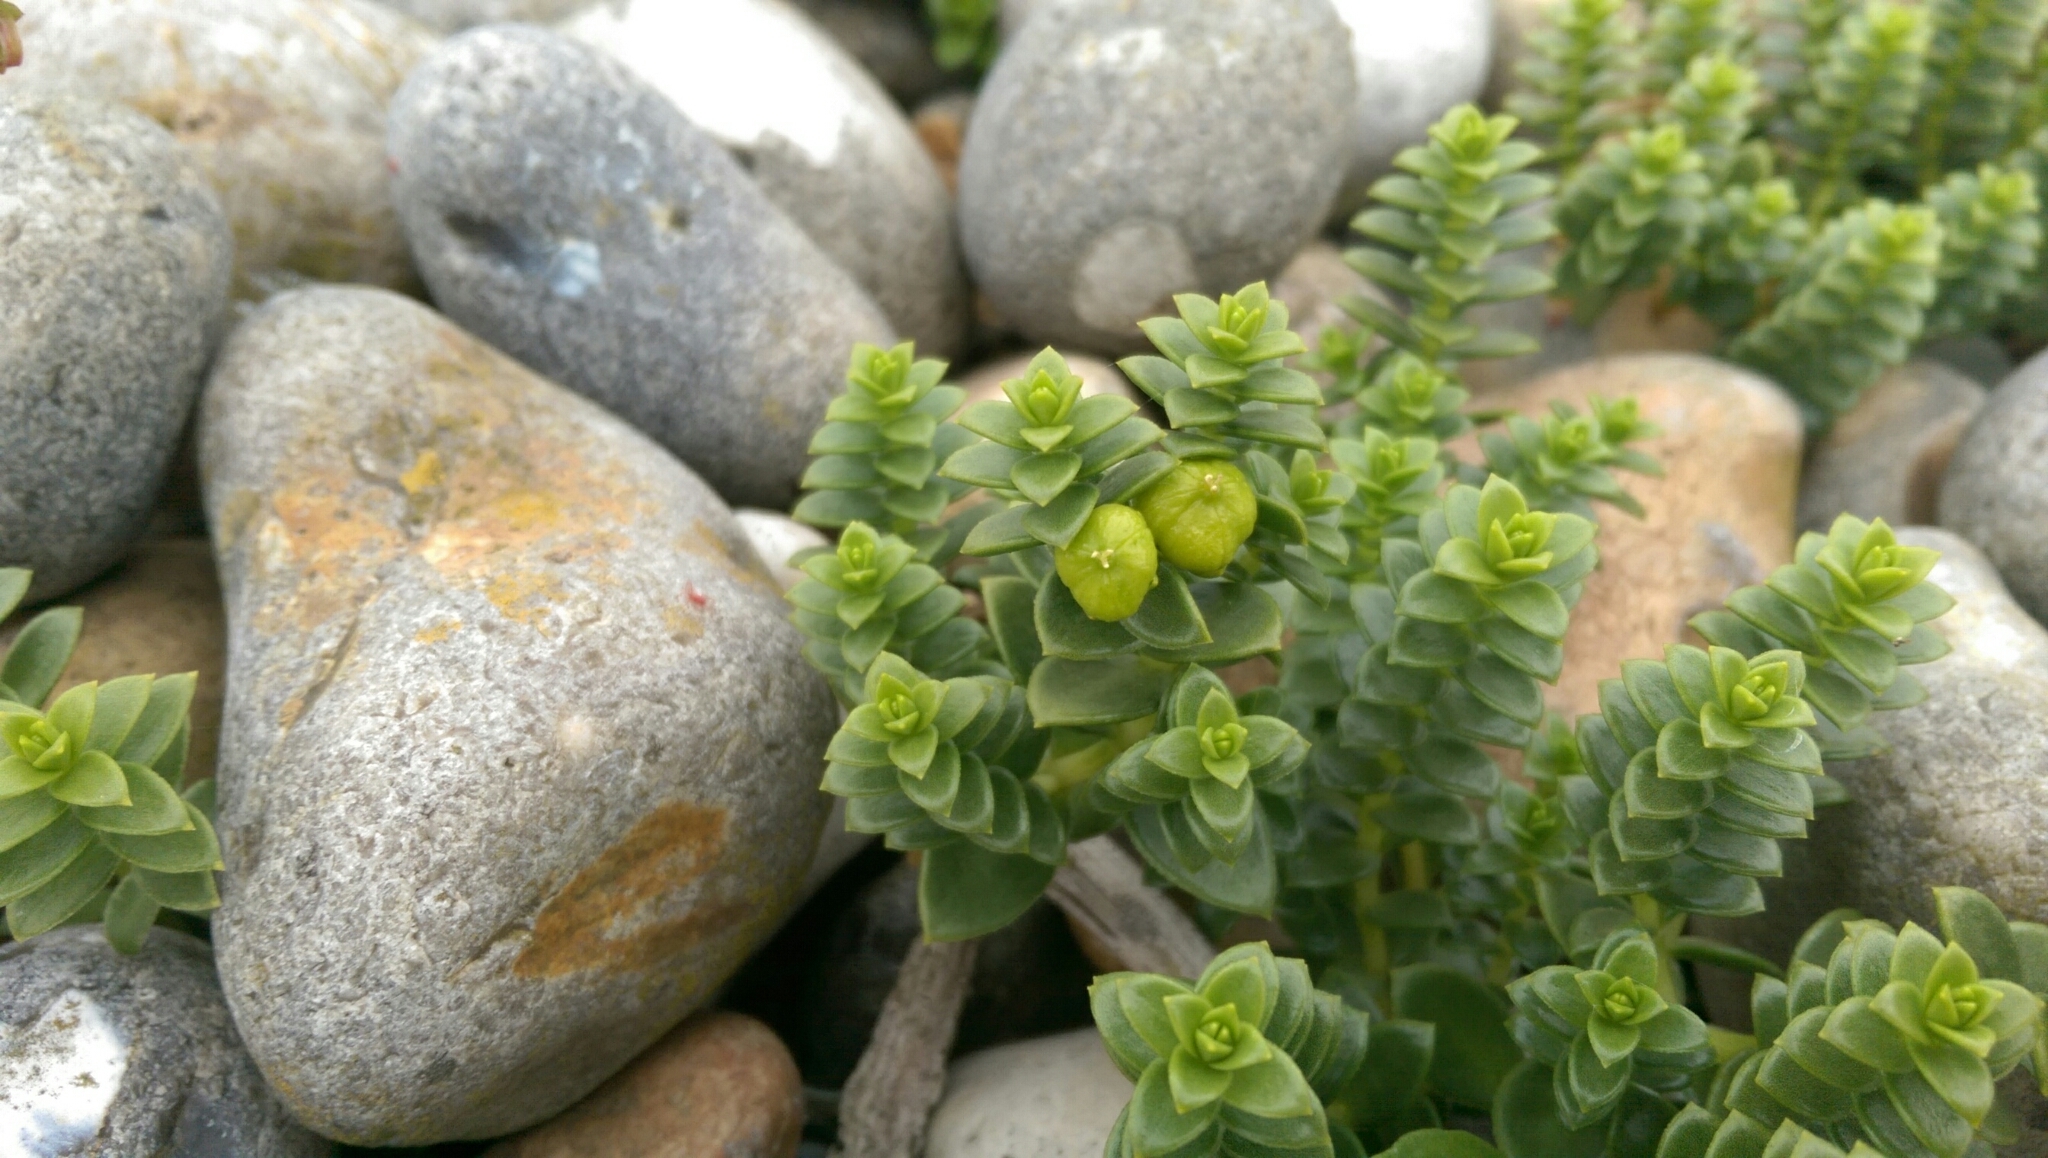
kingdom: Plantae
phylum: Tracheophyta
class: Magnoliopsida
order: Caryophyllales
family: Caryophyllaceae
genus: Honckenya
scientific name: Honckenya peploides
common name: Sea sandwort
